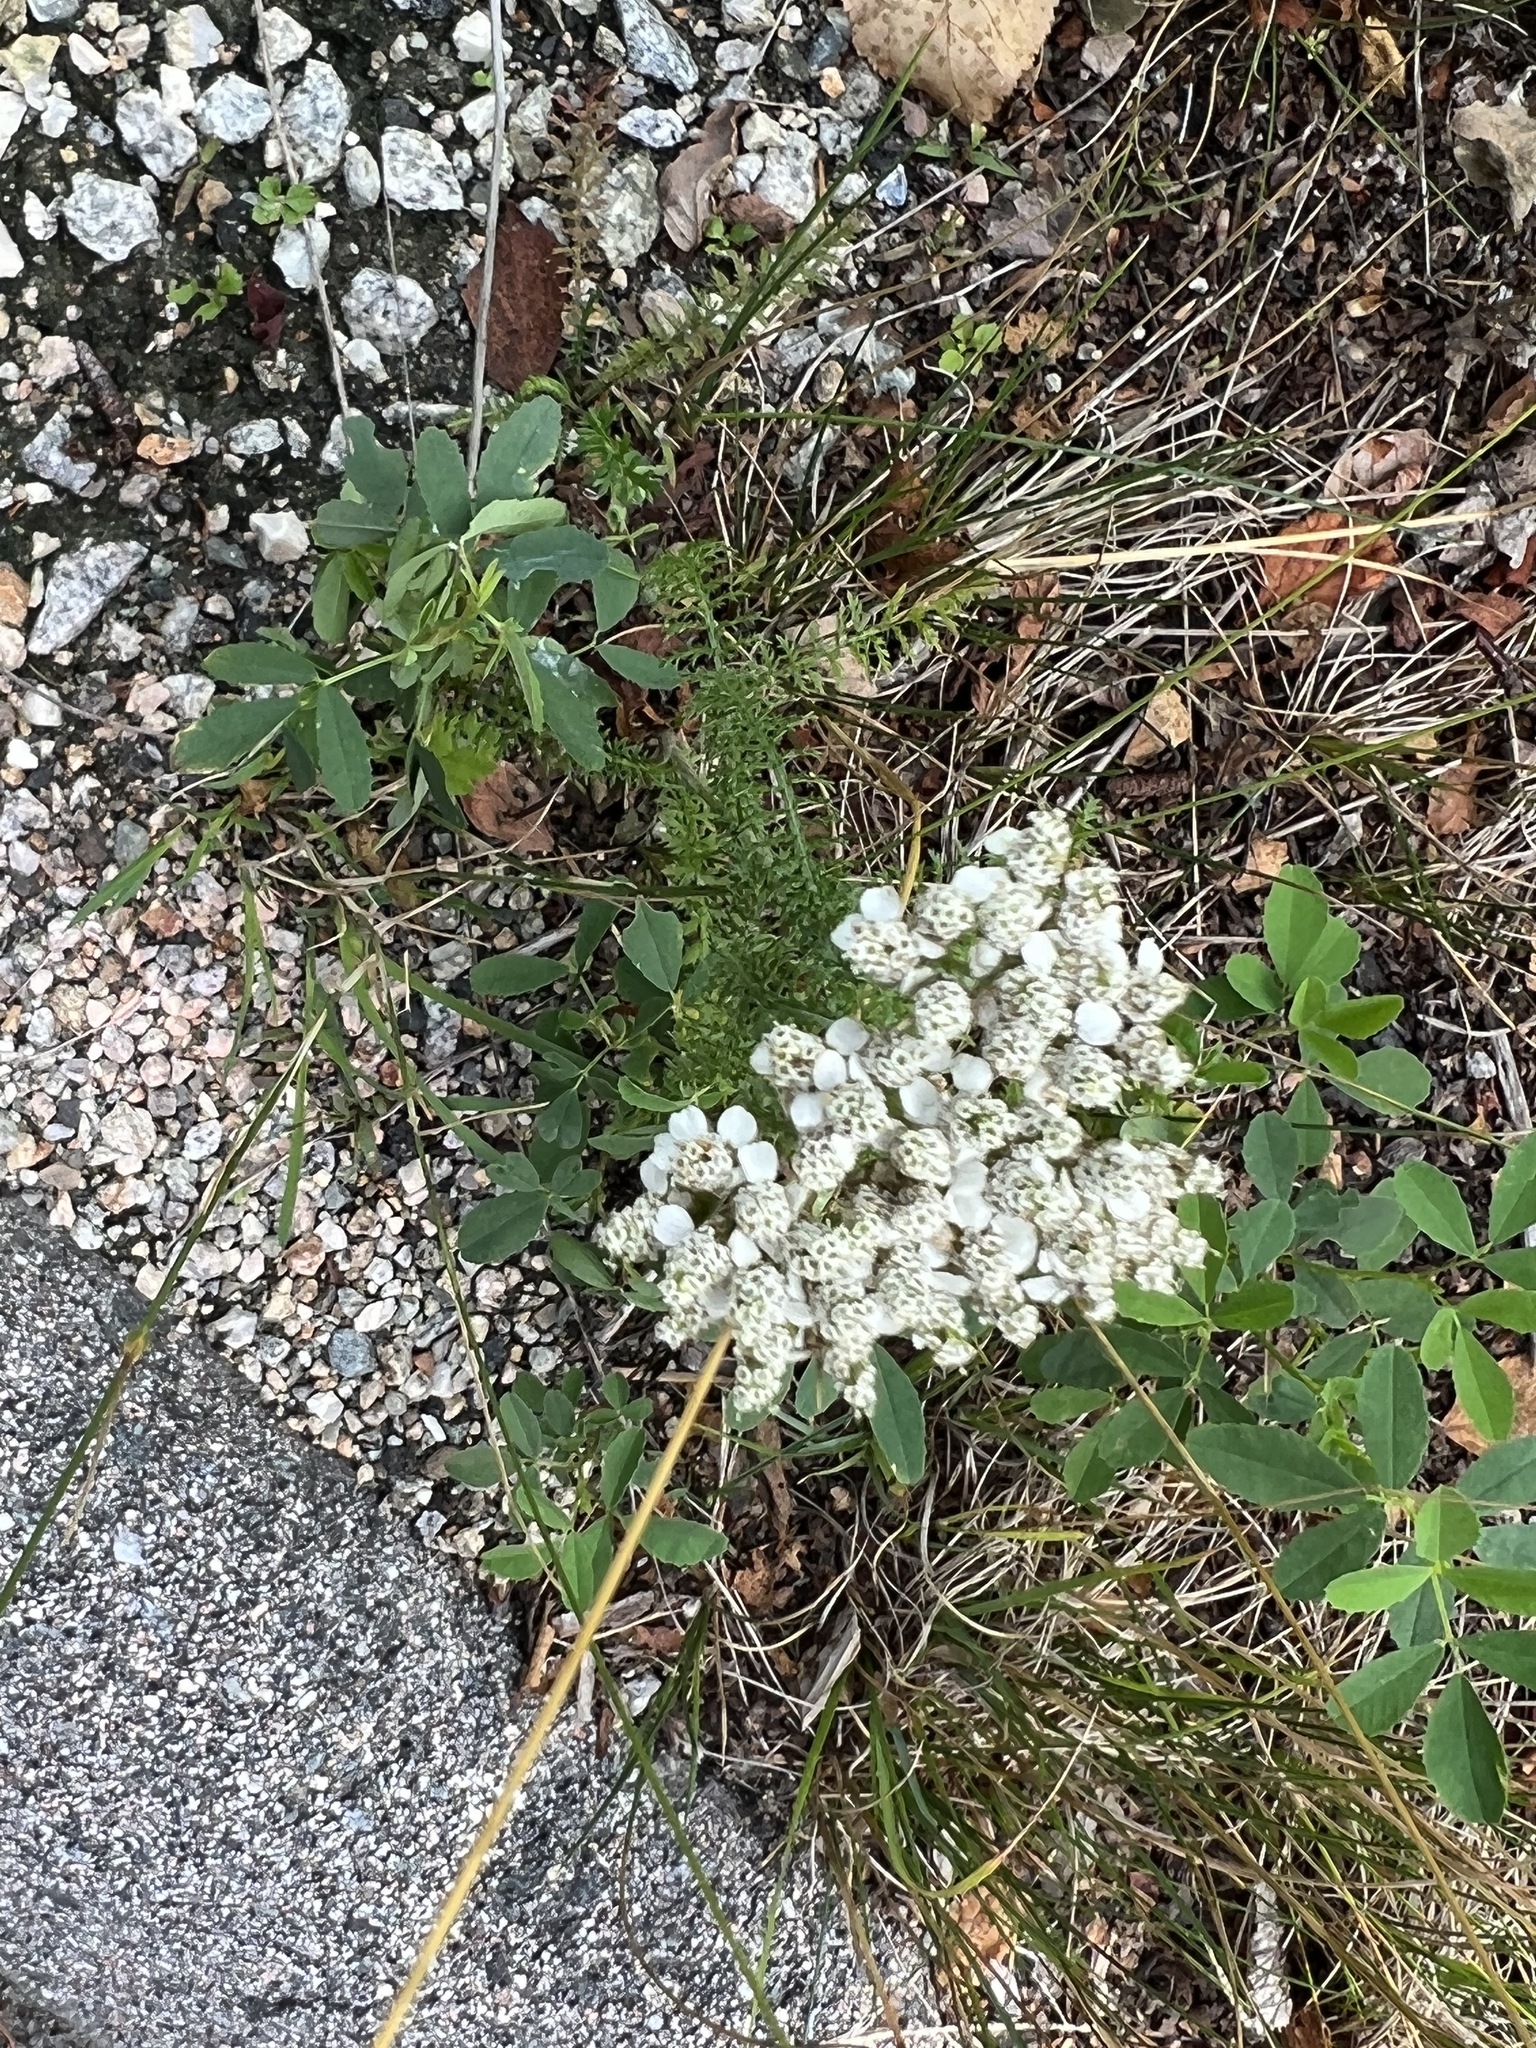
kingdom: Plantae
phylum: Tracheophyta
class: Magnoliopsida
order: Asterales
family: Asteraceae
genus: Achillea
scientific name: Achillea millefolium
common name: Yarrow
